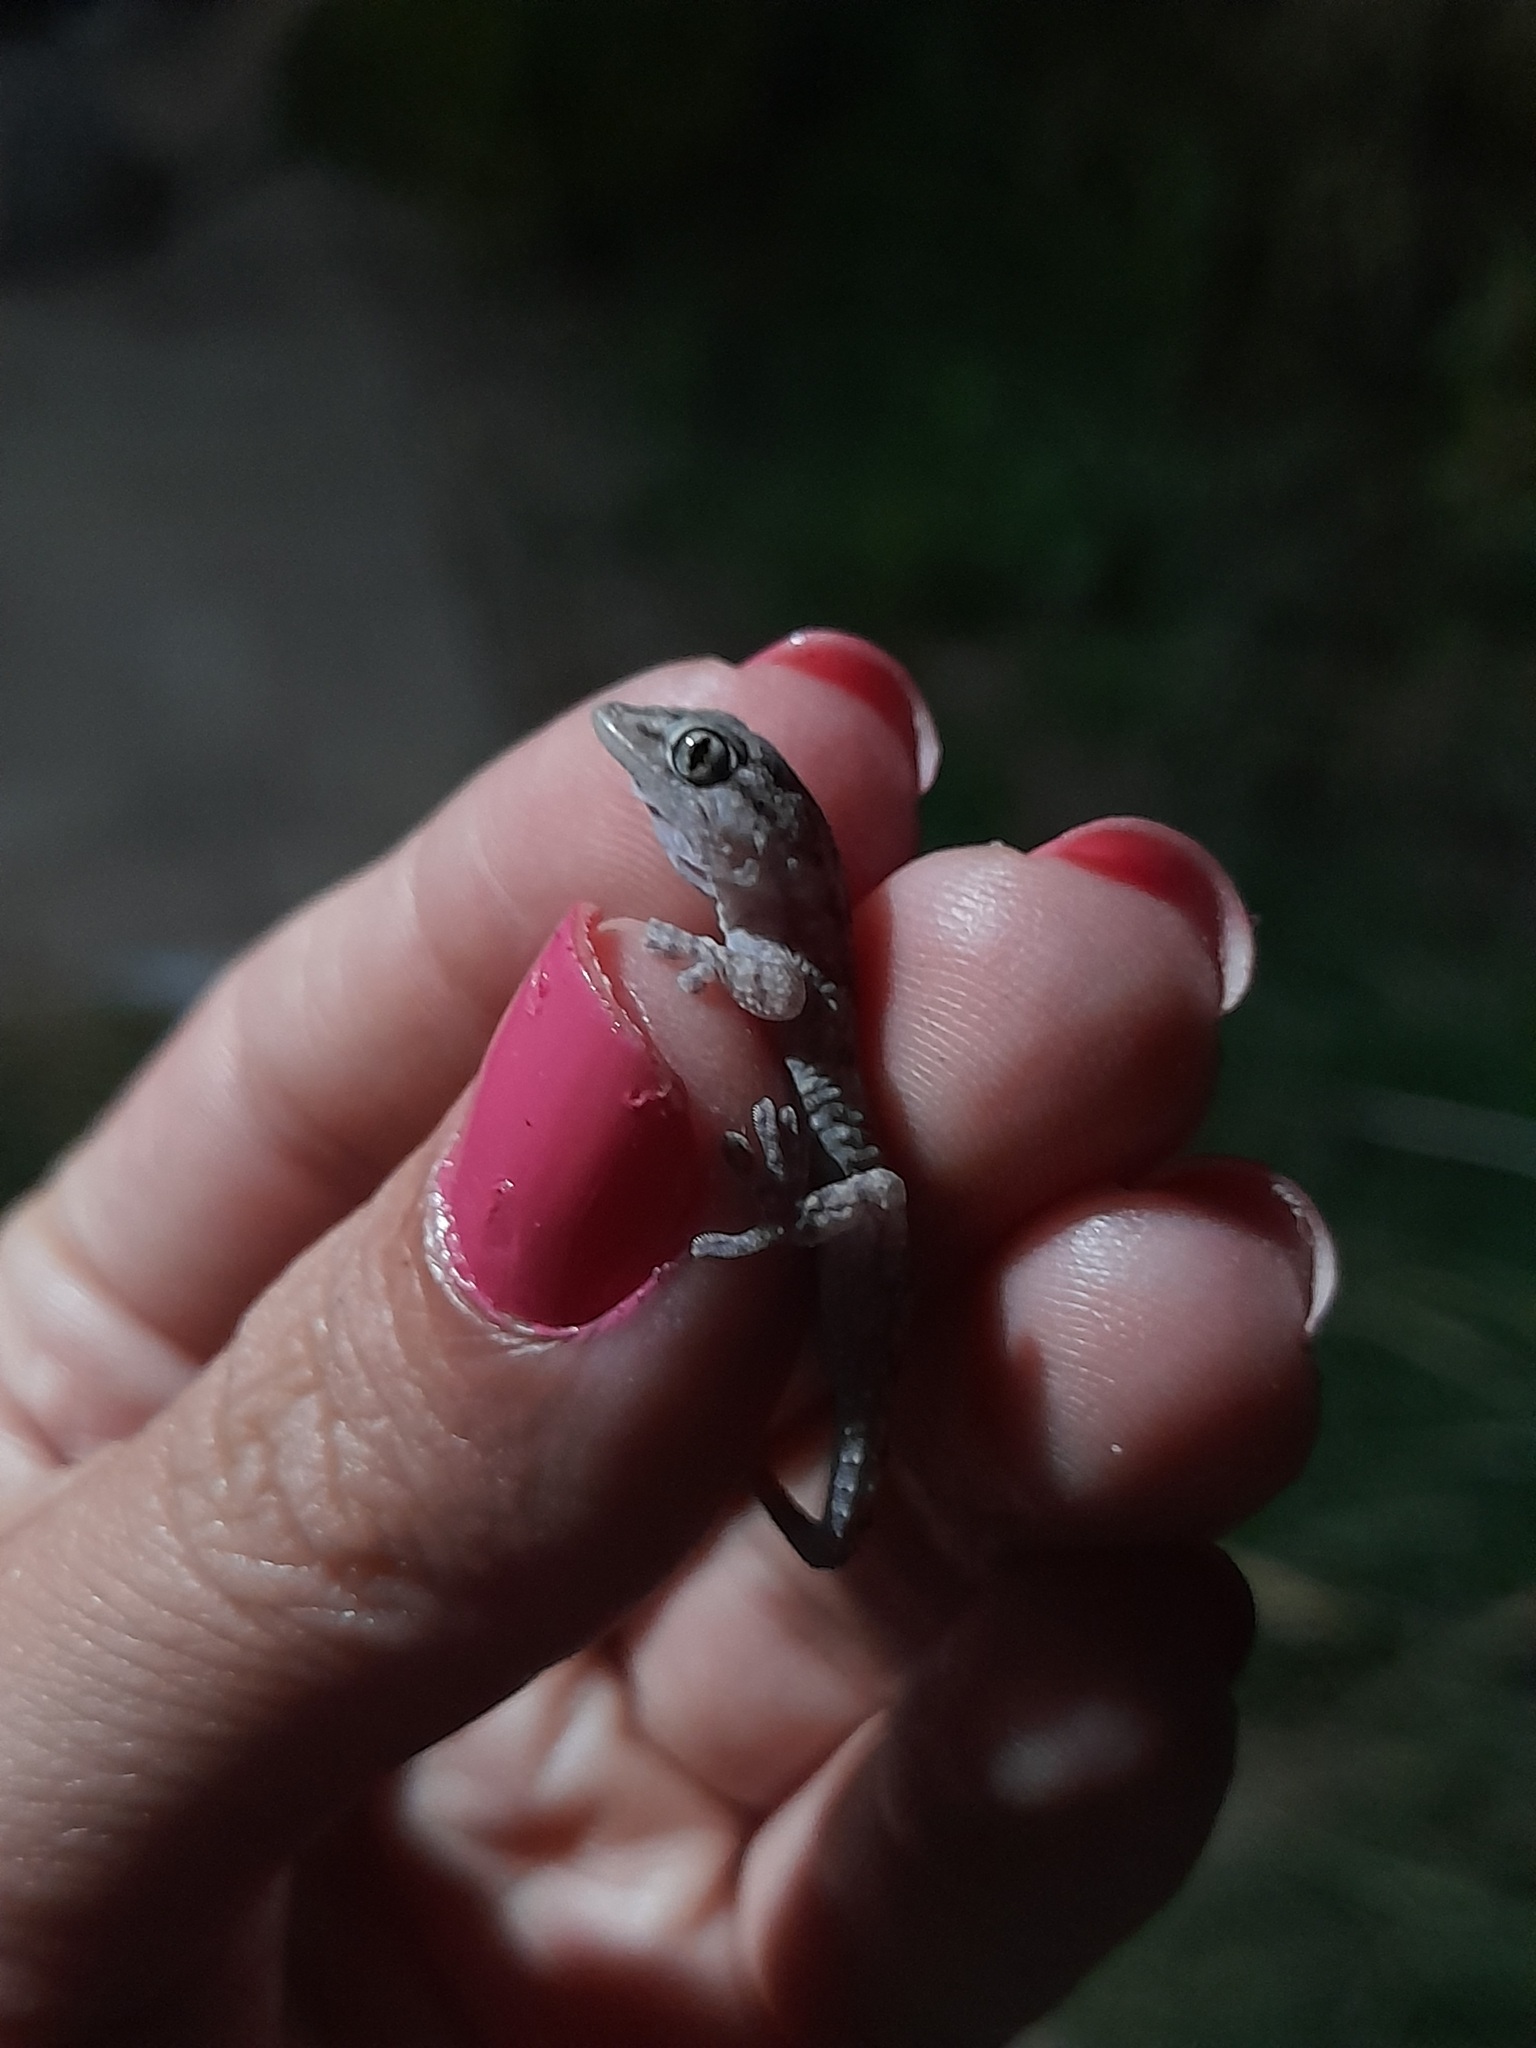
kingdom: Animalia
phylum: Chordata
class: Squamata
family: Phyllodactylidae
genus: Tarentola
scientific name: Tarentola mauritanica
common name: Moorish gecko
